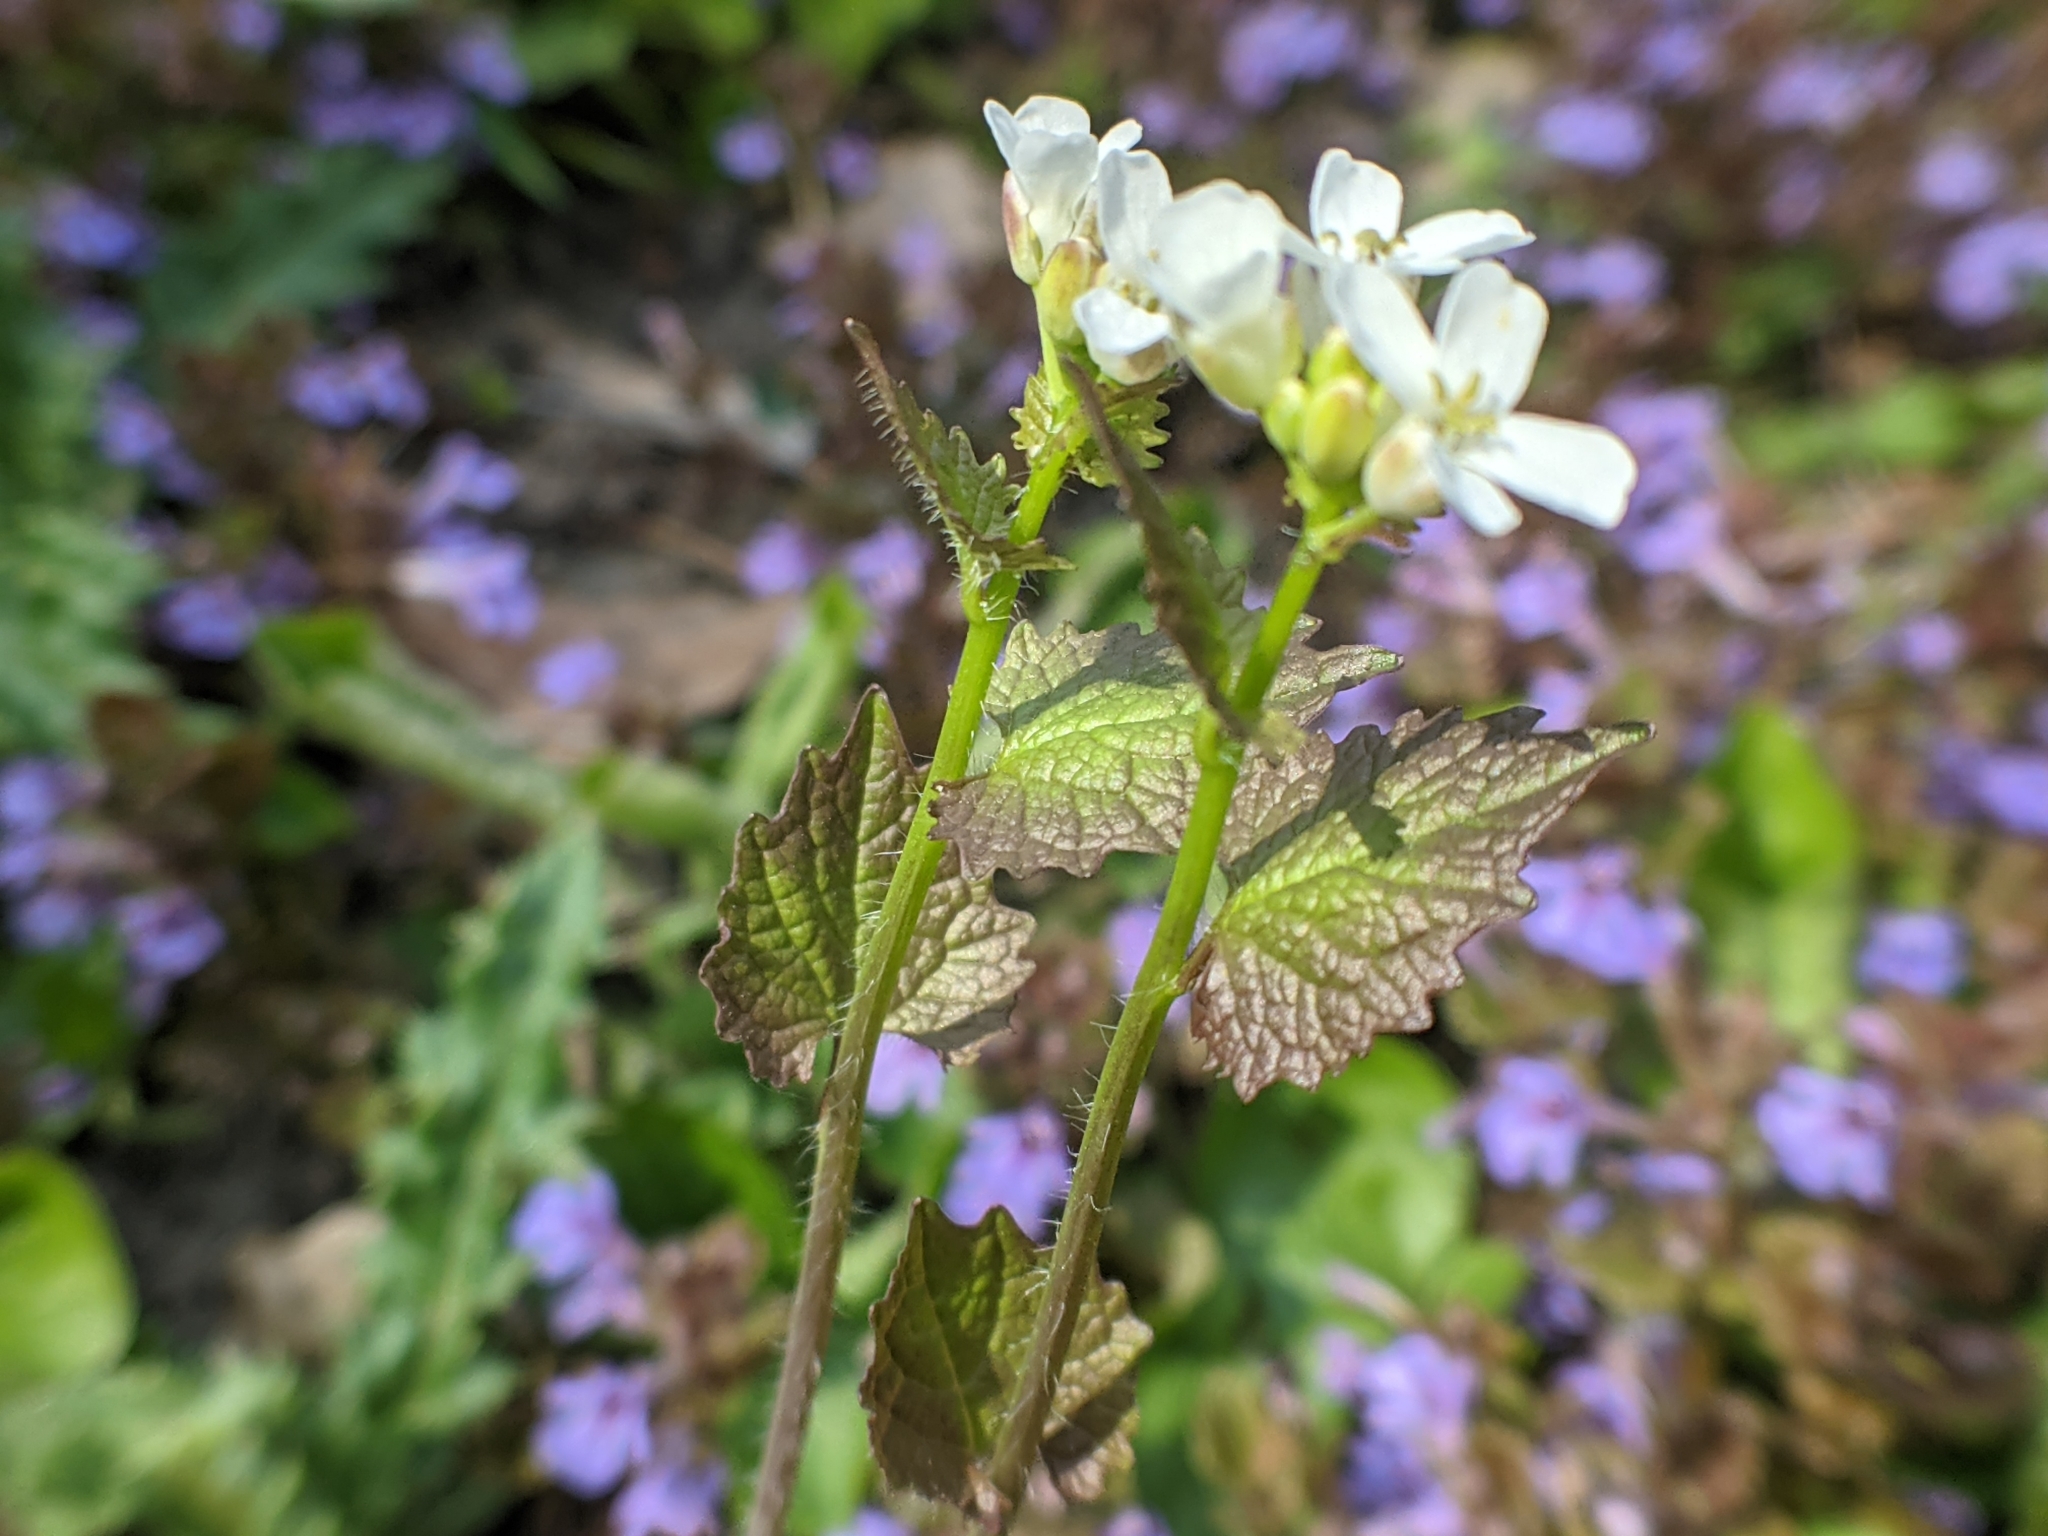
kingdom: Plantae
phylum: Tracheophyta
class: Magnoliopsida
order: Brassicales
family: Brassicaceae
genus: Alliaria
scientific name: Alliaria petiolata
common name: Garlic mustard
